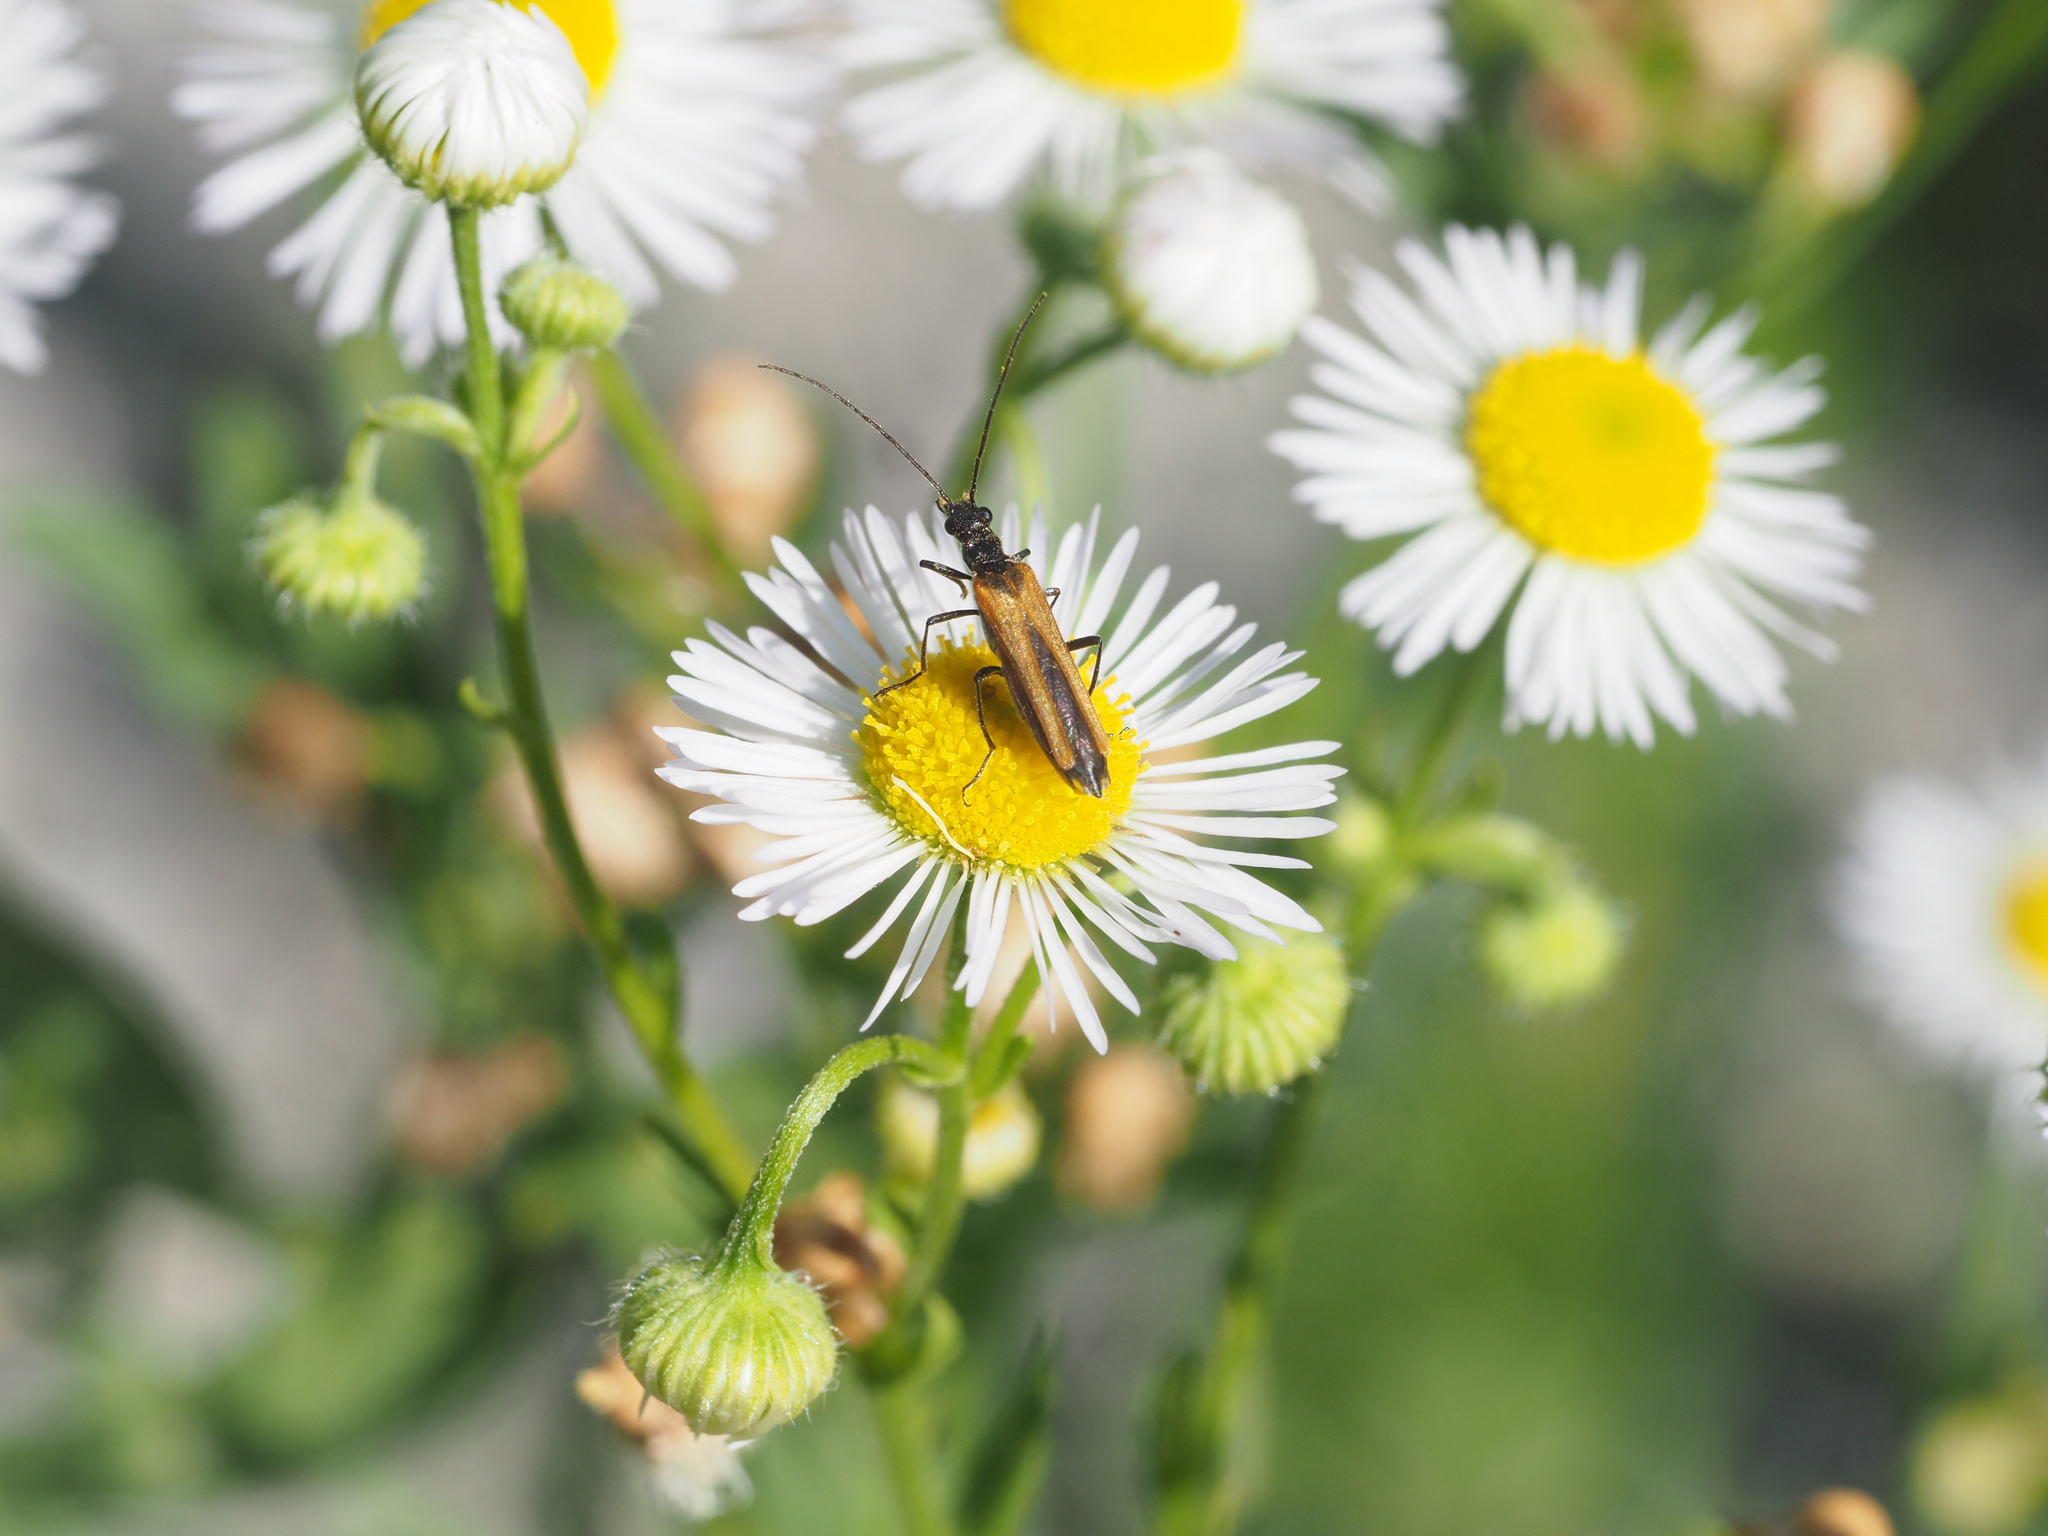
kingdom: Animalia
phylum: Arthropoda
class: Insecta
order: Coleoptera
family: Oedemeridae
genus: Oedemera
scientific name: Oedemera femorata
